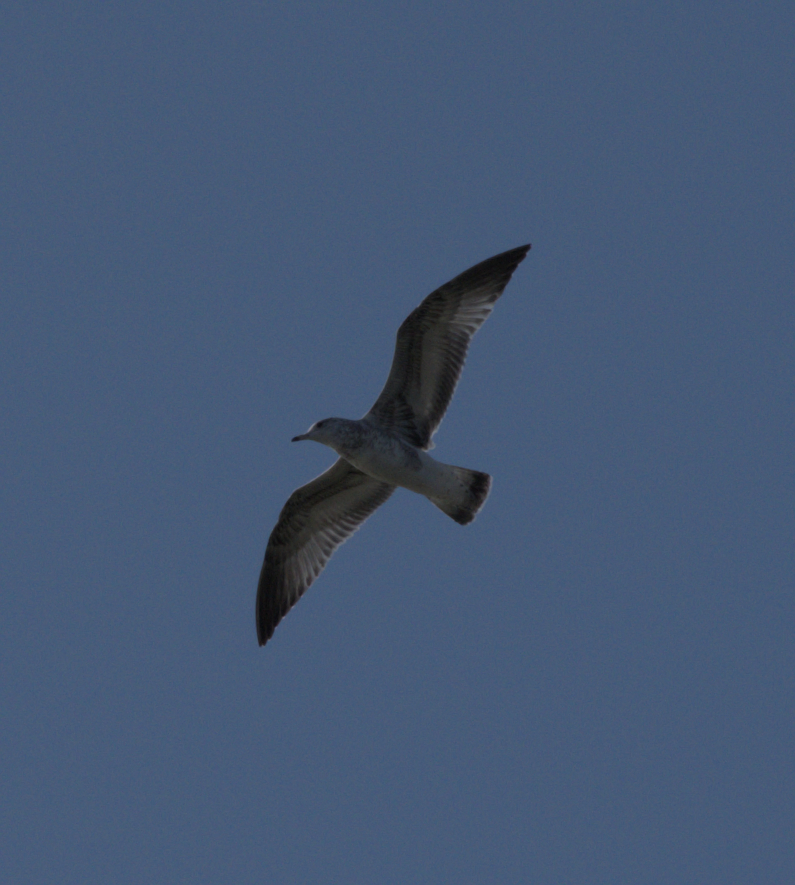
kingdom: Animalia
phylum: Chordata
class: Aves
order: Charadriiformes
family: Laridae
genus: Larus
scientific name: Larus delawarensis
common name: Ring-billed gull
